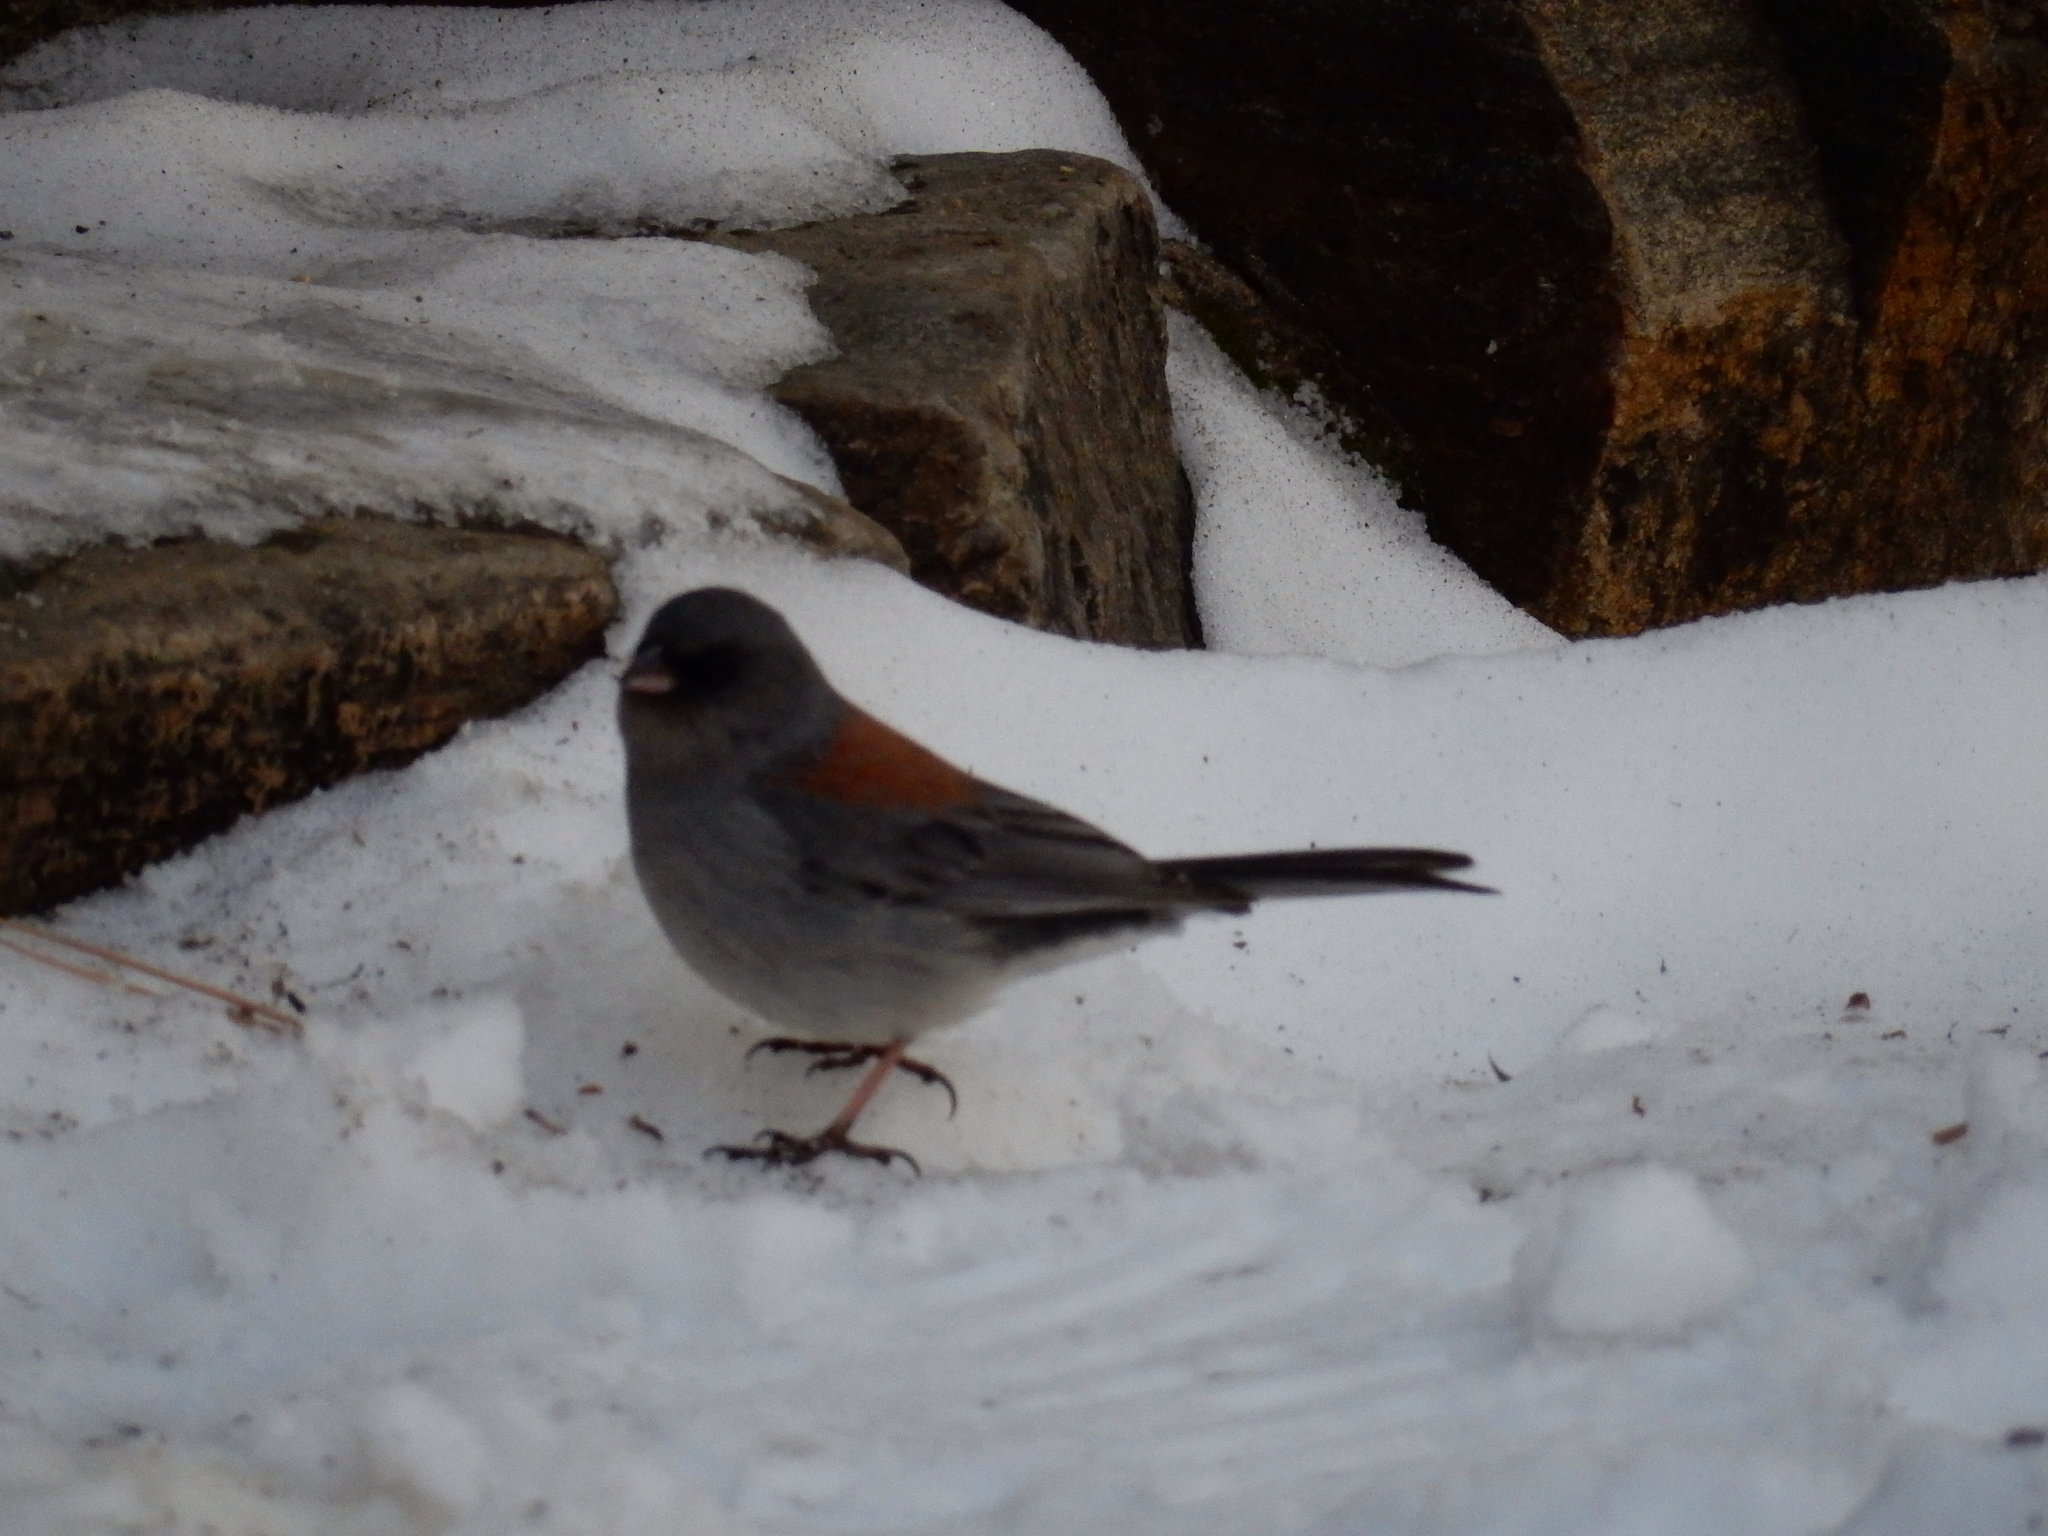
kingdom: Animalia
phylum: Chordata
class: Aves
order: Passeriformes
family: Passerellidae
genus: Junco
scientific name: Junco hyemalis
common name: Dark-eyed junco
